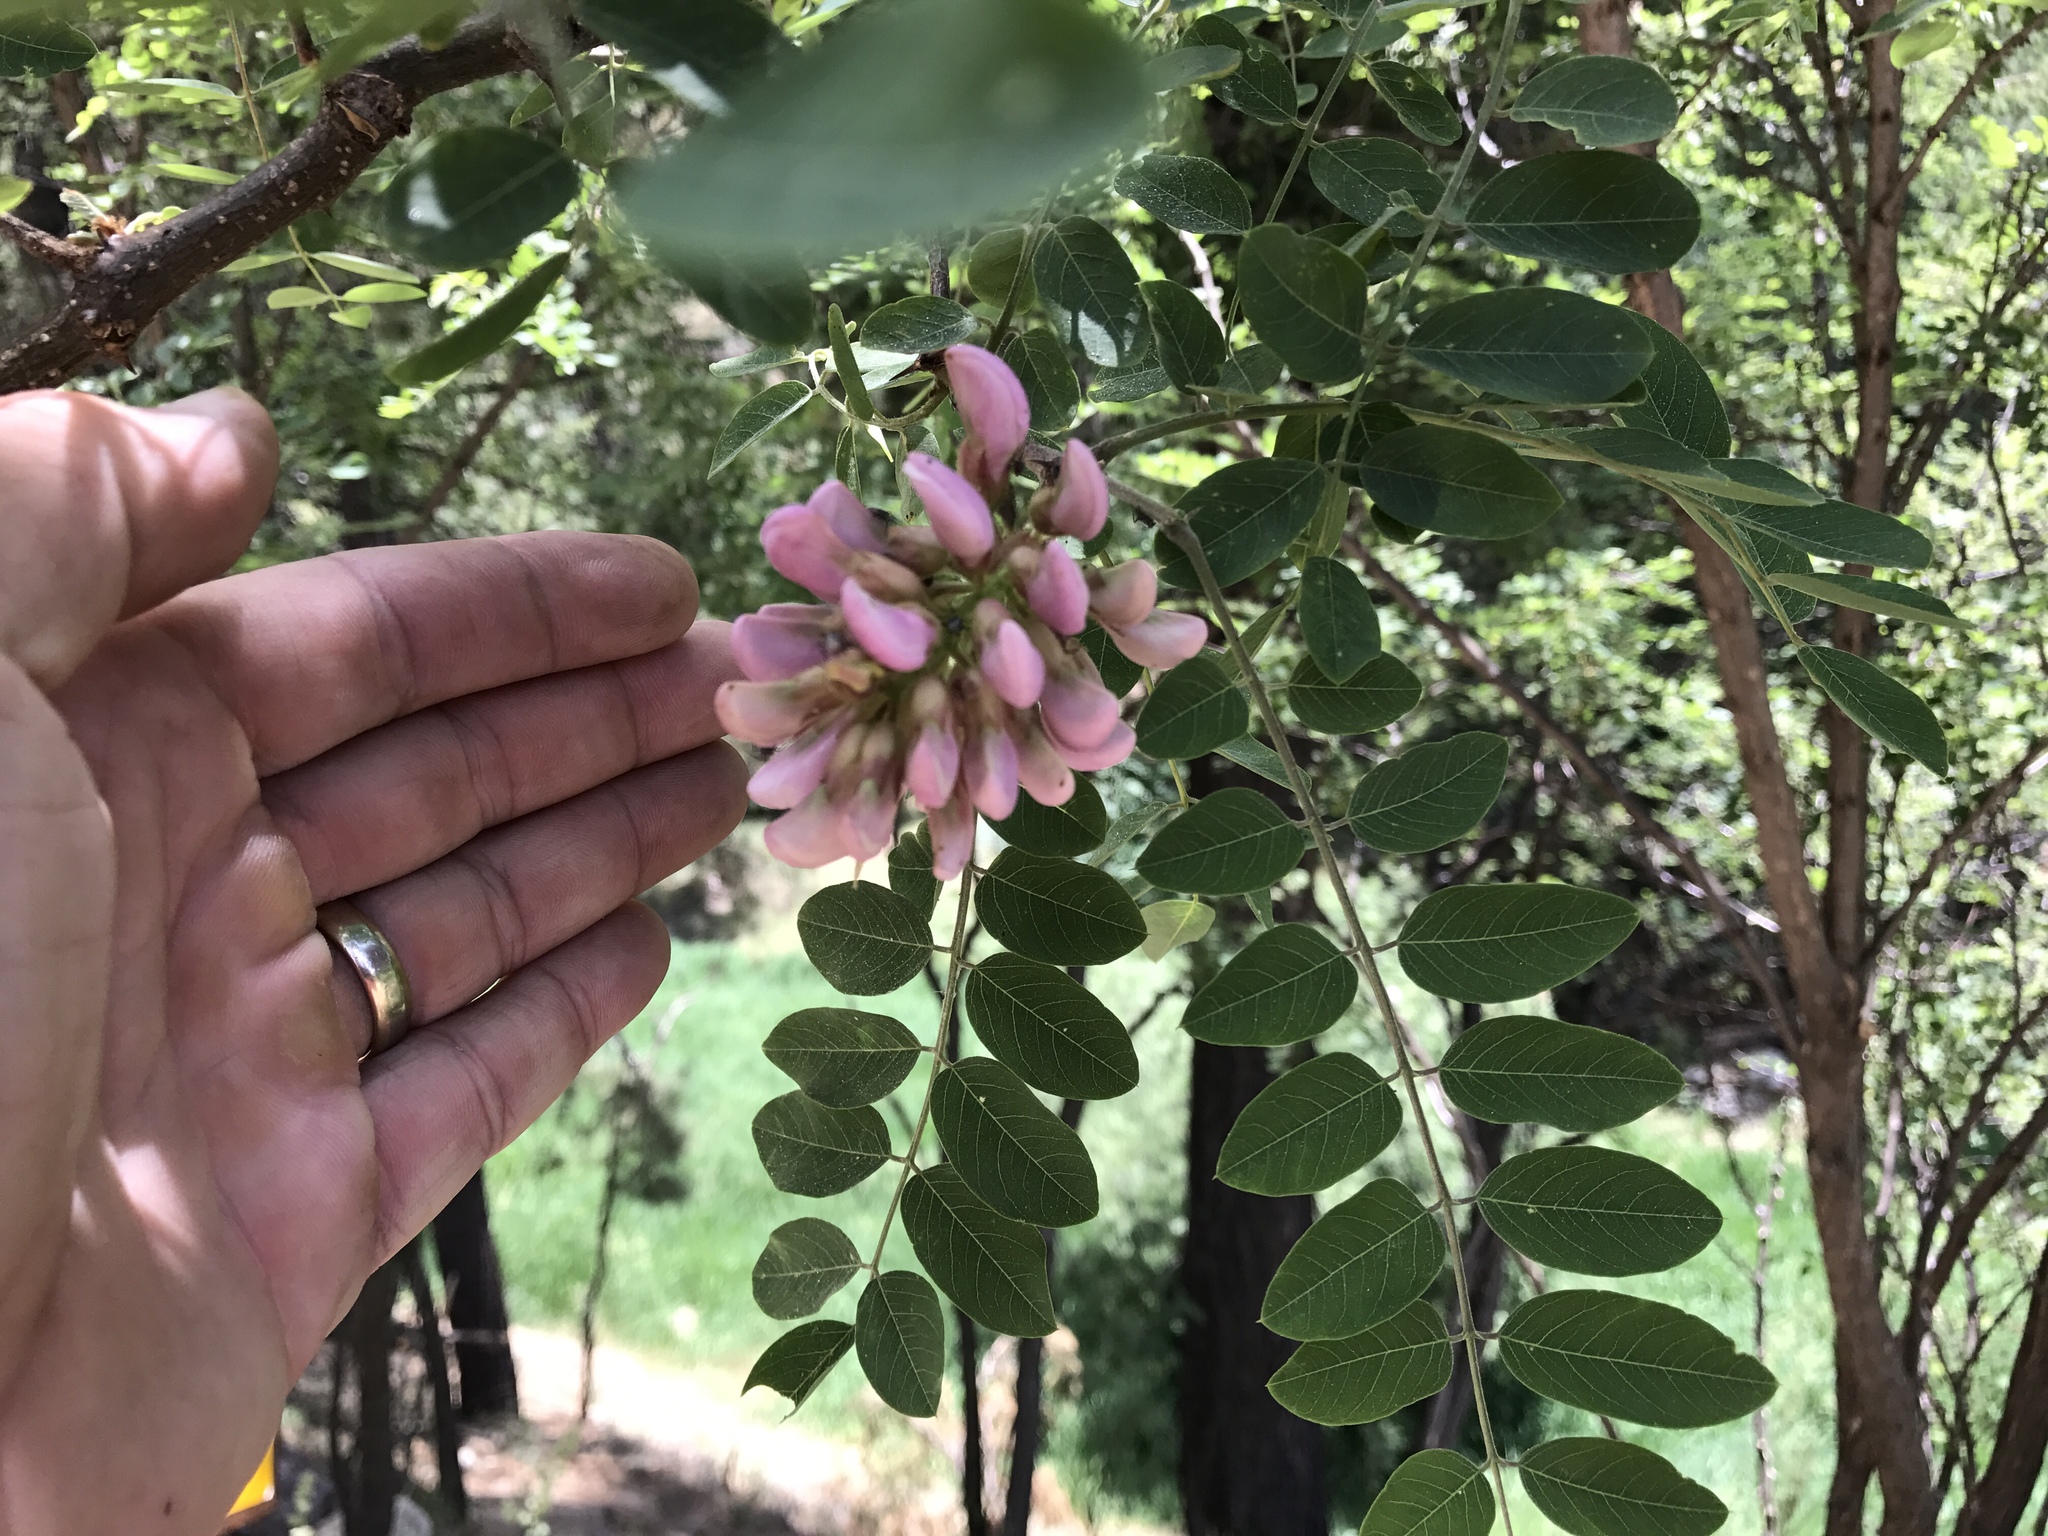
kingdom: Plantae
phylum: Tracheophyta
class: Magnoliopsida
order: Fabales
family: Fabaceae
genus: Robinia
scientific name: Robinia neomexicana
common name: New mexico locust
